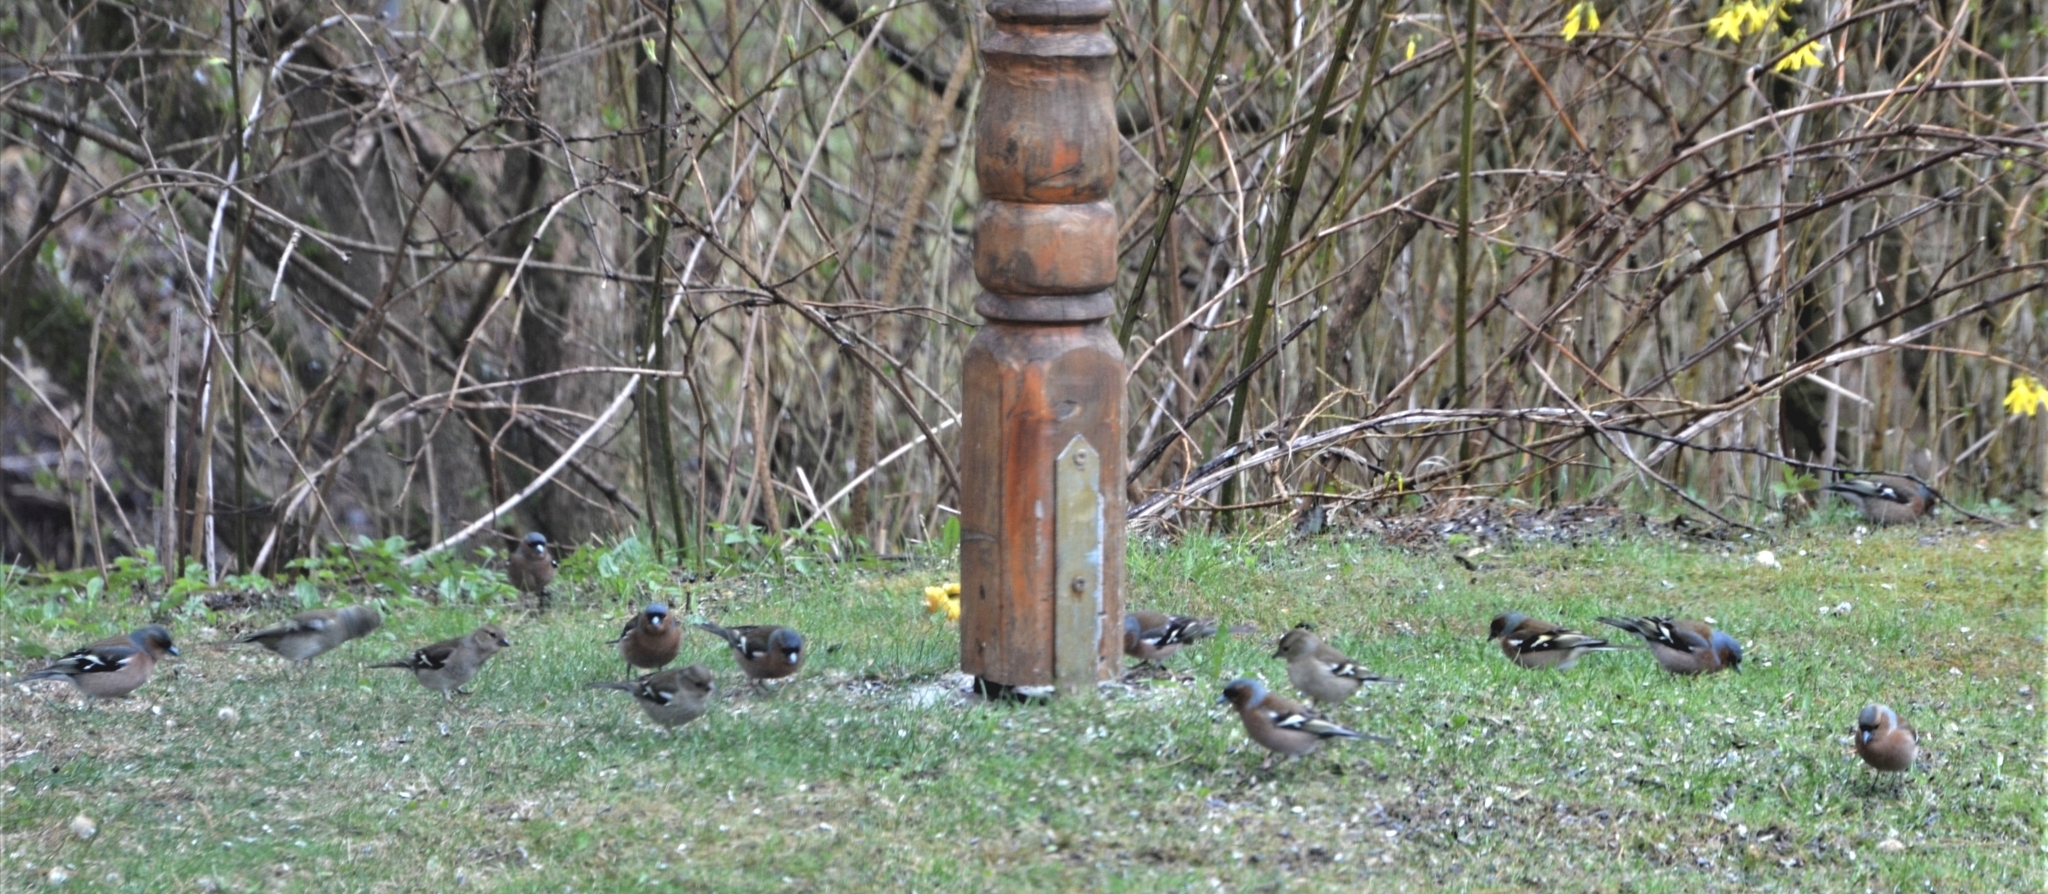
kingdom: Animalia
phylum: Chordata
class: Aves
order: Passeriformes
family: Fringillidae
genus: Fringilla
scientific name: Fringilla coelebs
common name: Common chaffinch
